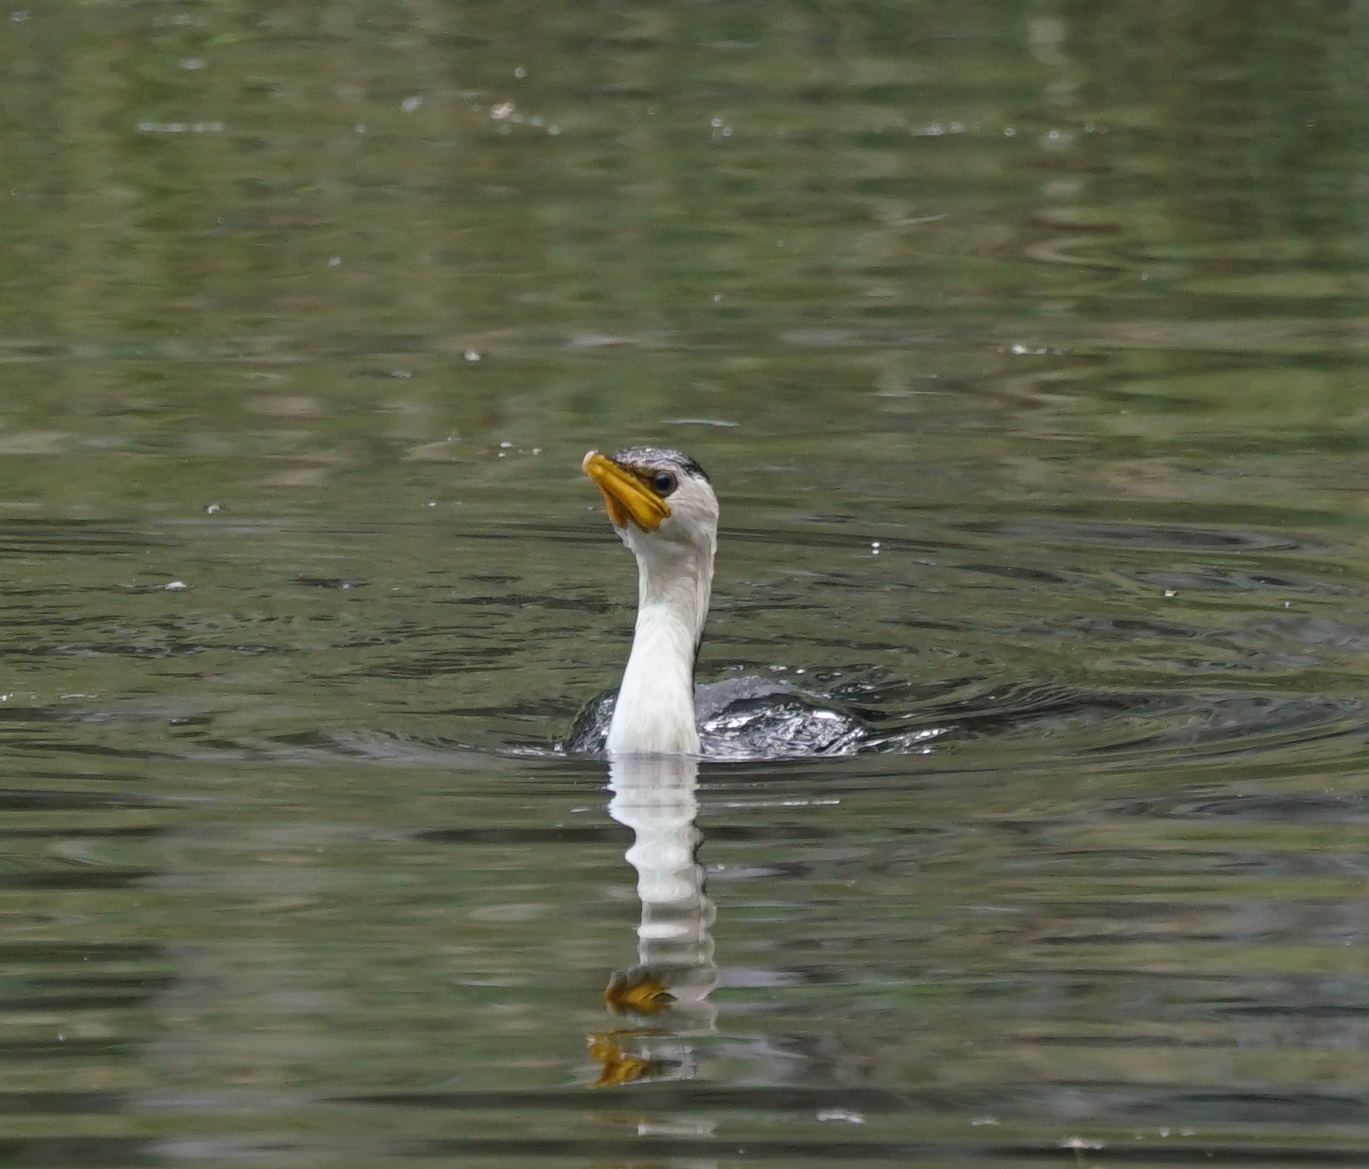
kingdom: Animalia
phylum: Chordata
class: Aves
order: Suliformes
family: Phalacrocoracidae
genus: Microcarbo
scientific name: Microcarbo melanoleucos
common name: Little pied cormorant
